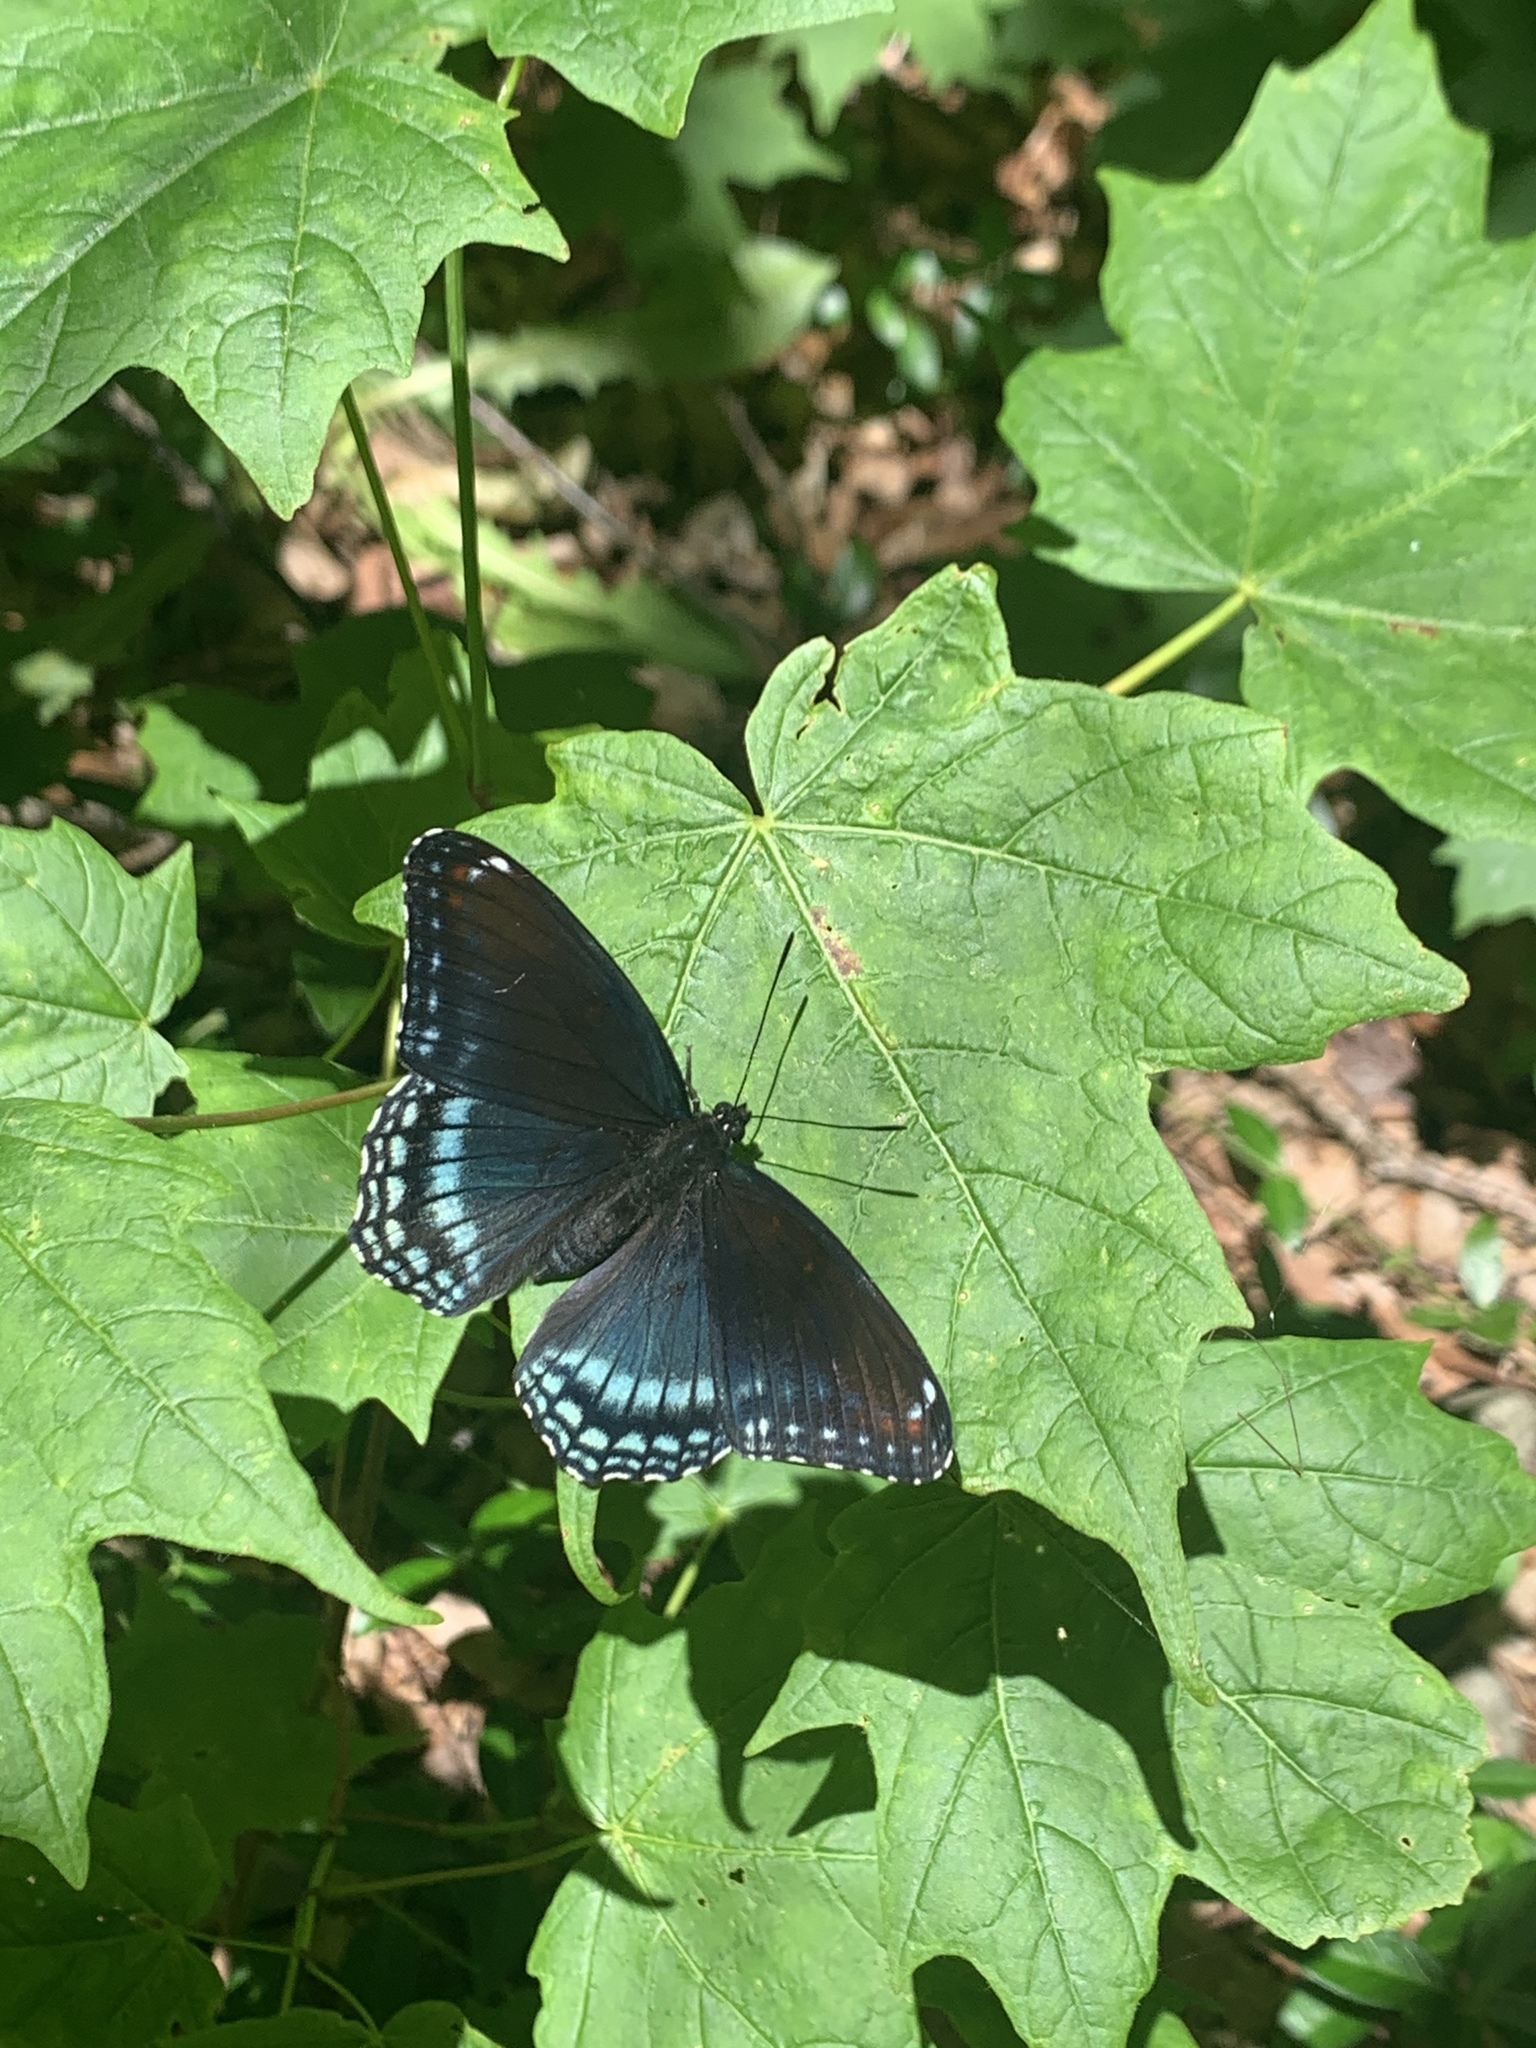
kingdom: Animalia
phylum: Arthropoda
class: Insecta
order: Lepidoptera
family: Nymphalidae
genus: Limenitis
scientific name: Limenitis astyanax
